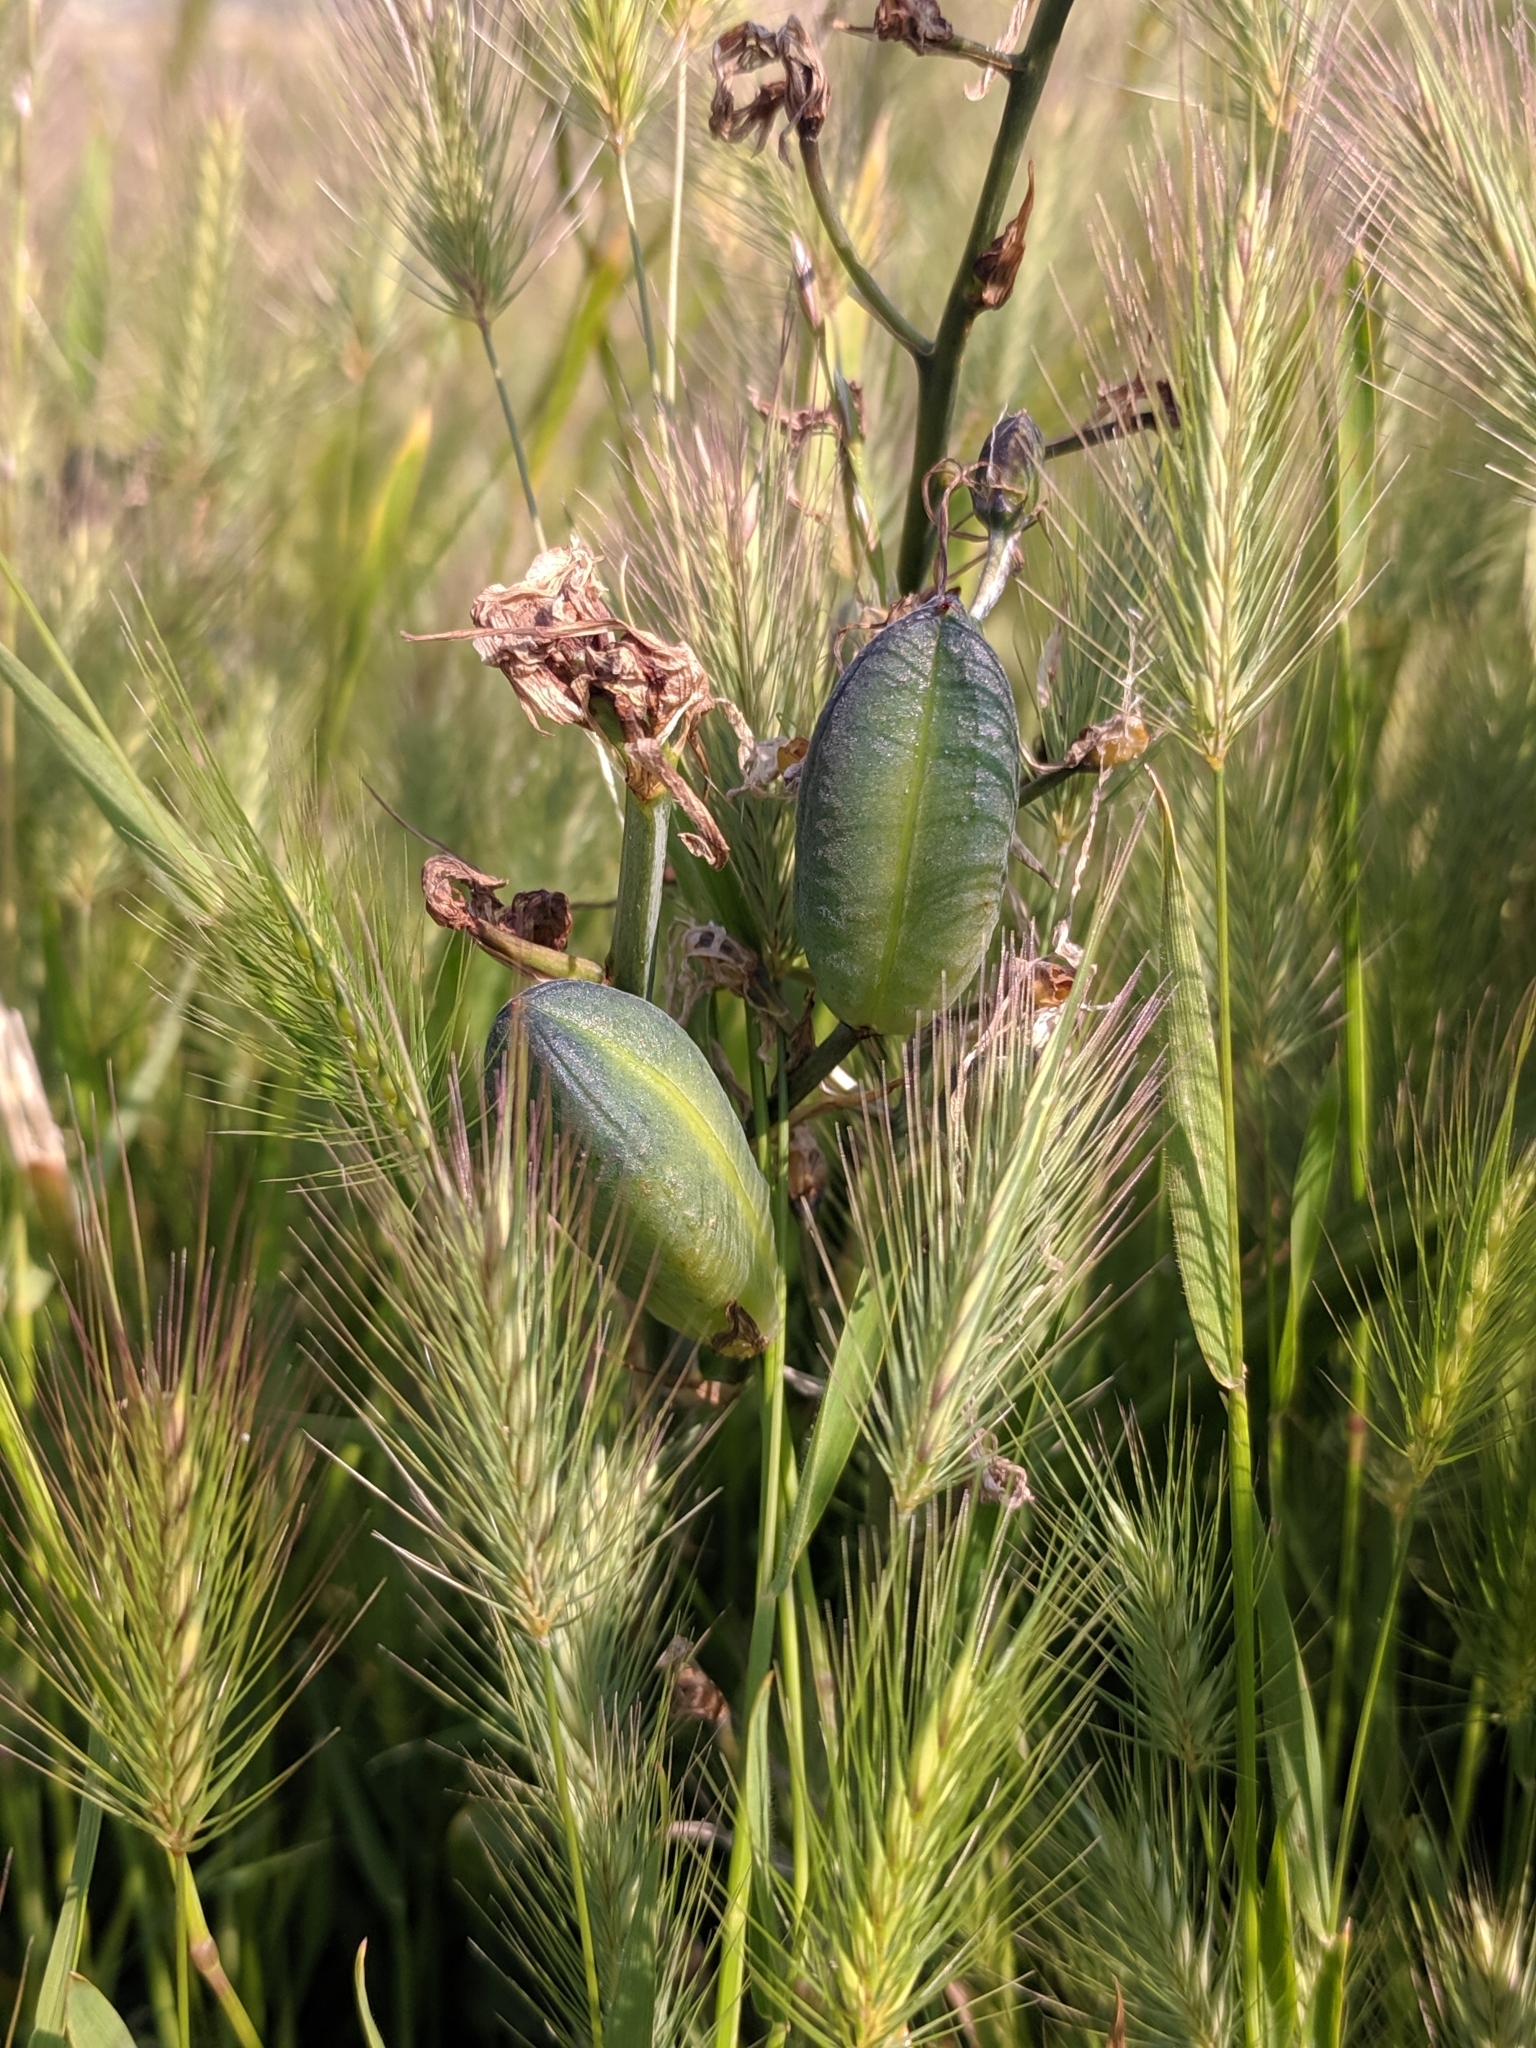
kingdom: Plantae
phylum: Tracheophyta
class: Liliopsida
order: Asparagales
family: Asparagaceae
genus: Camassia
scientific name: Camassia leichtlinii
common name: Leichtlin's camas
